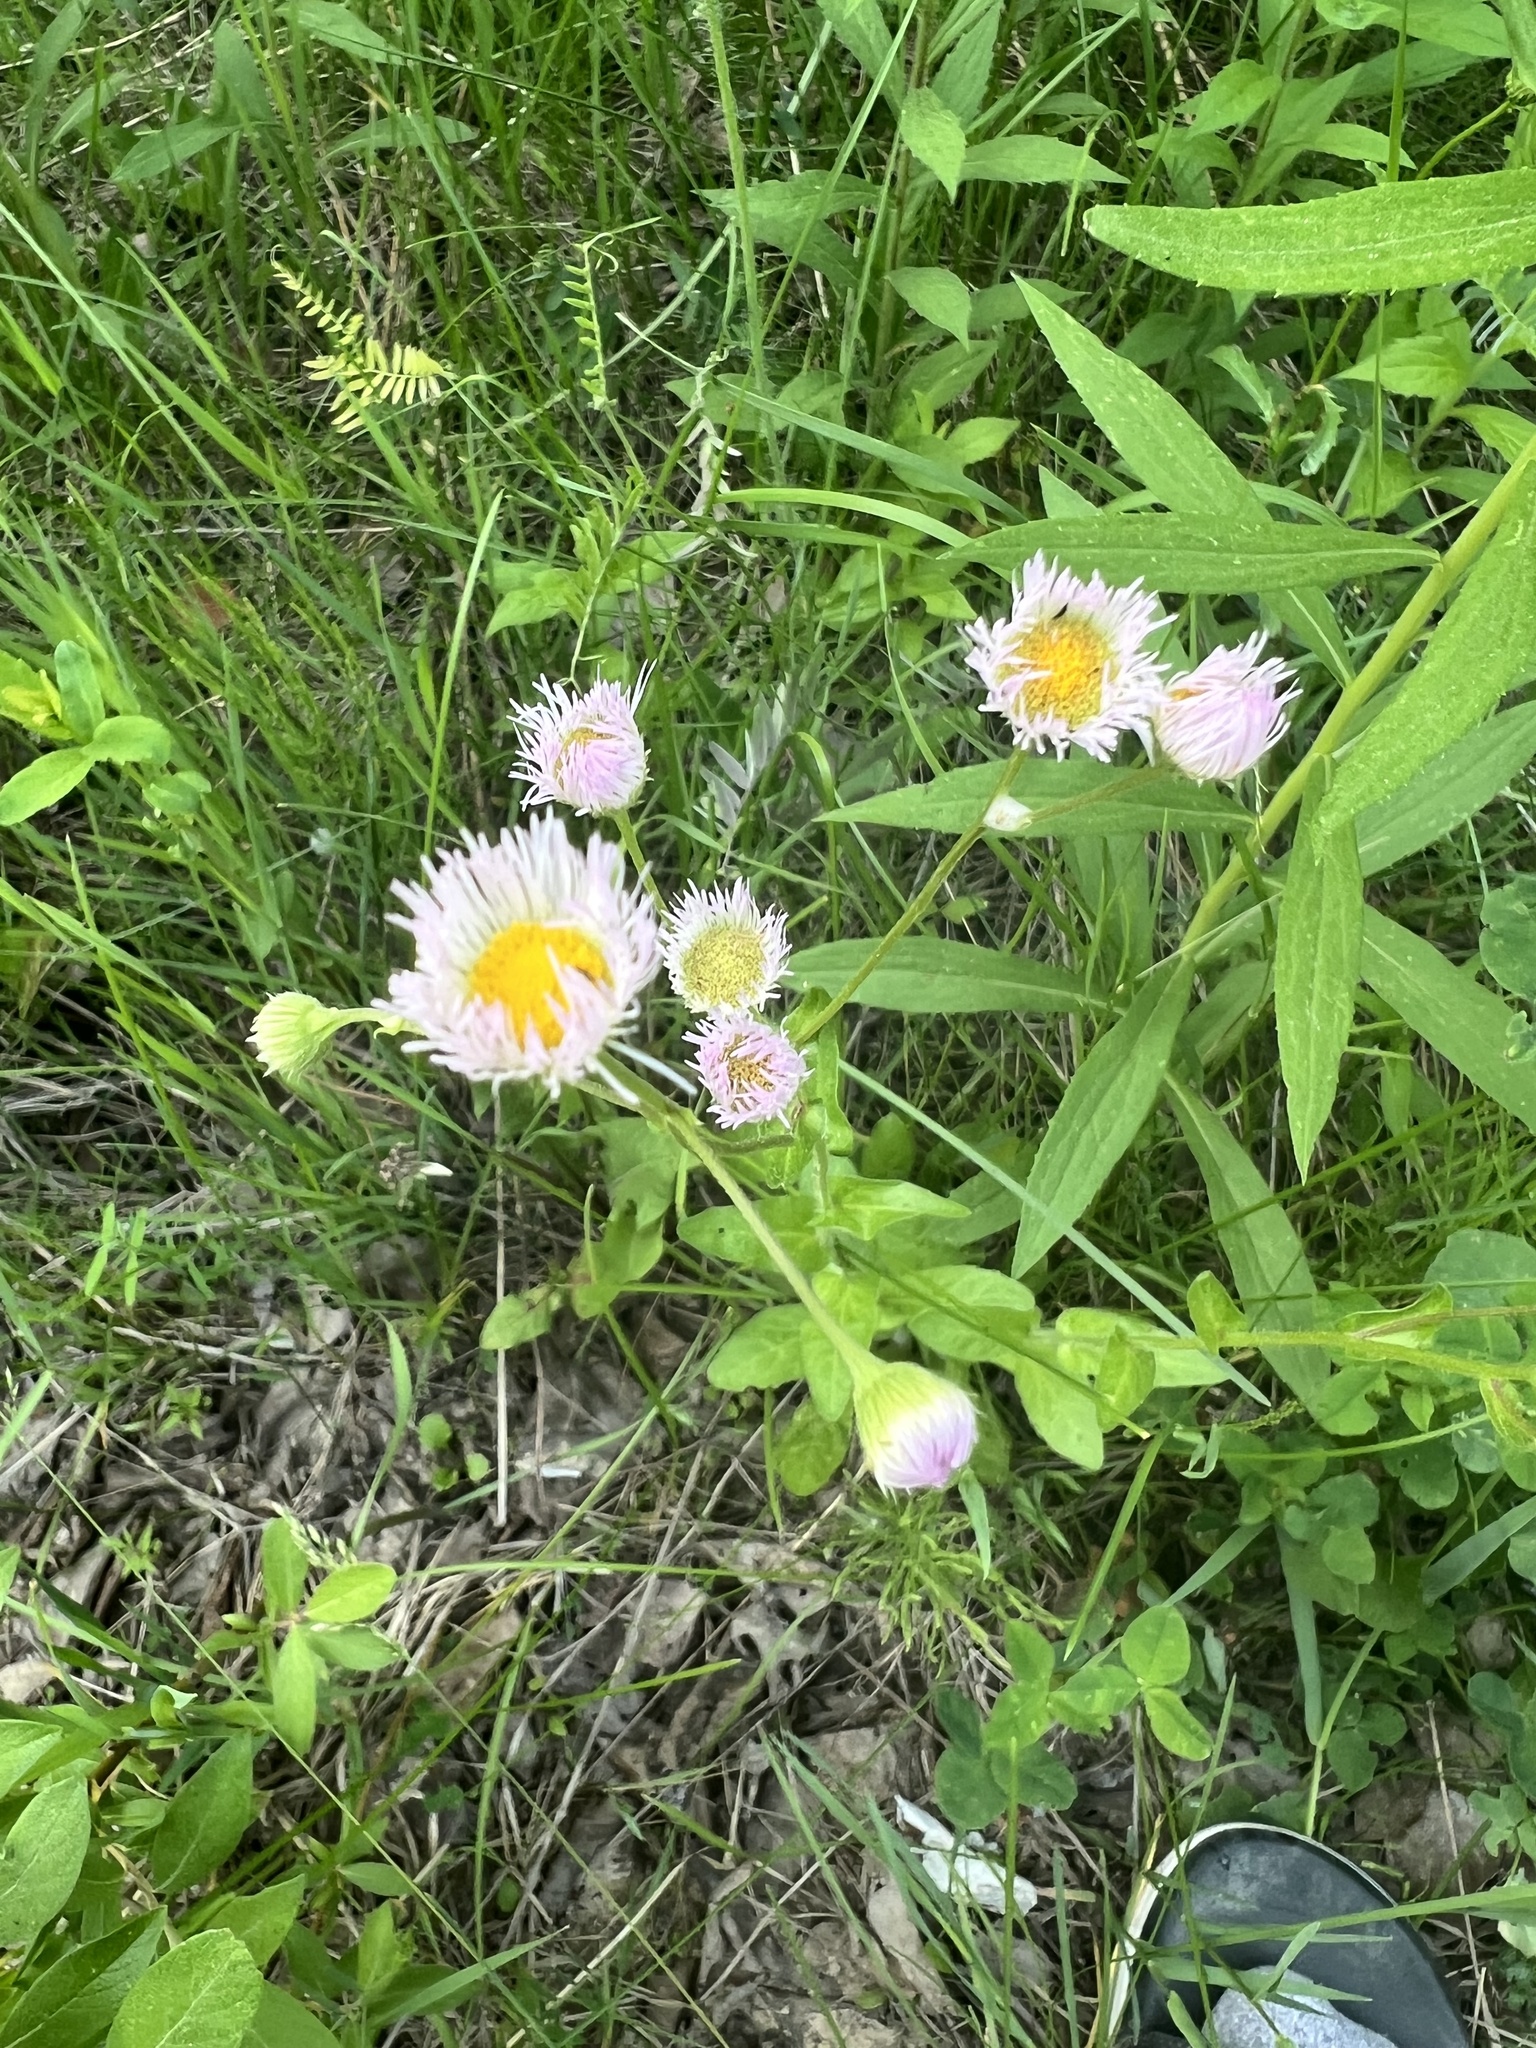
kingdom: Plantae
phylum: Tracheophyta
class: Magnoliopsida
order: Asterales
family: Asteraceae
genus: Erigeron
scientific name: Erigeron philadelphicus
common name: Robin's-plantain
